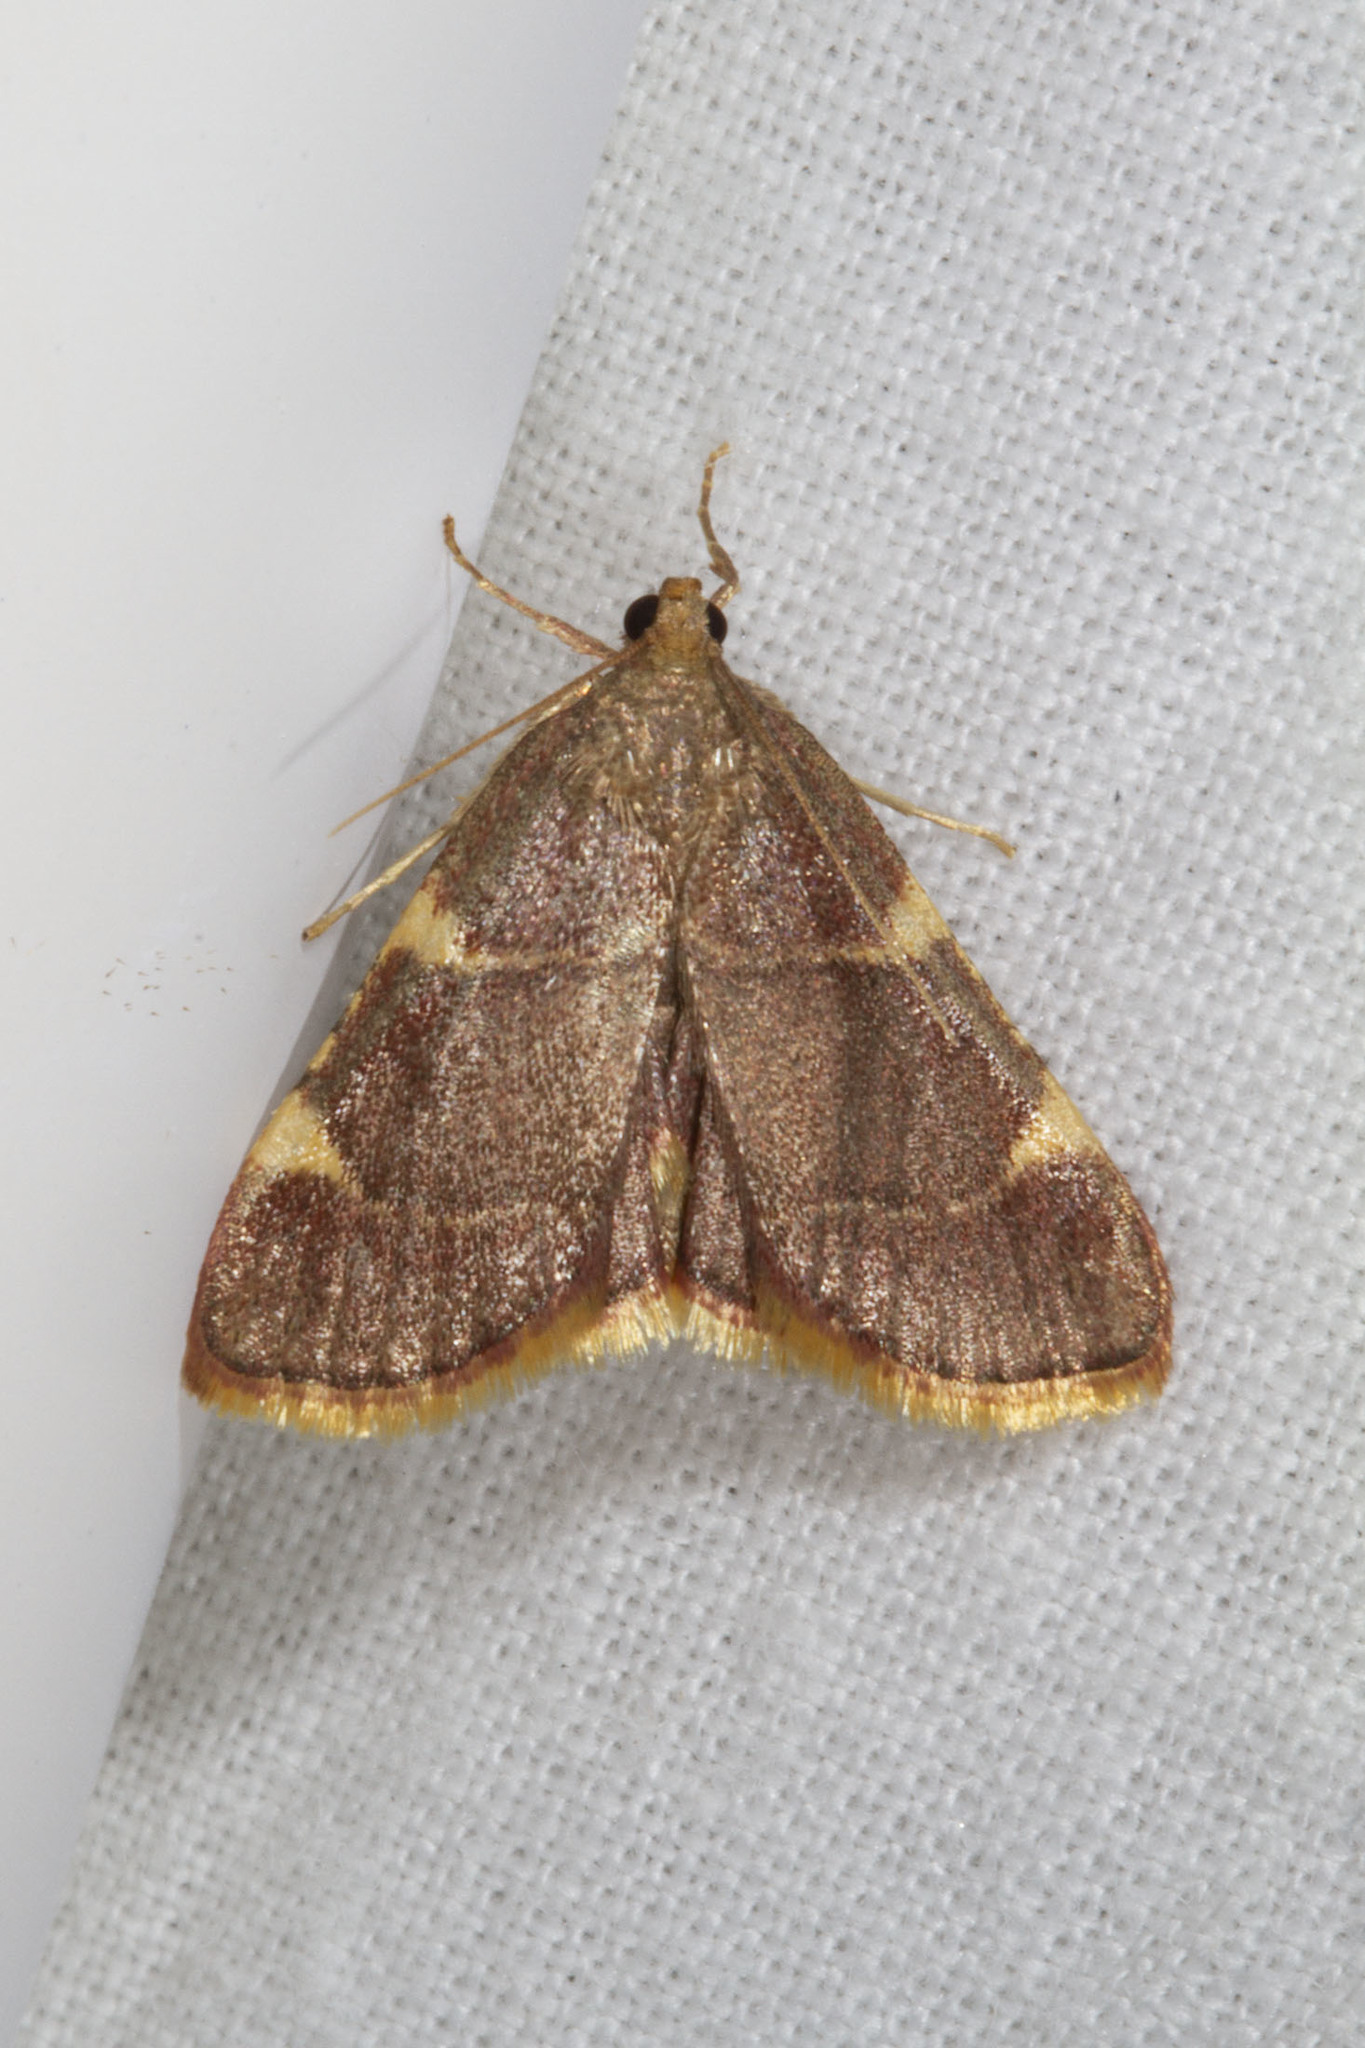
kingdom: Animalia
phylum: Arthropoda
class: Insecta
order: Lepidoptera
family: Pyralidae
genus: Hypsopygia
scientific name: Hypsopygia olinalis
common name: Yellow-fringed dolichomia moth
